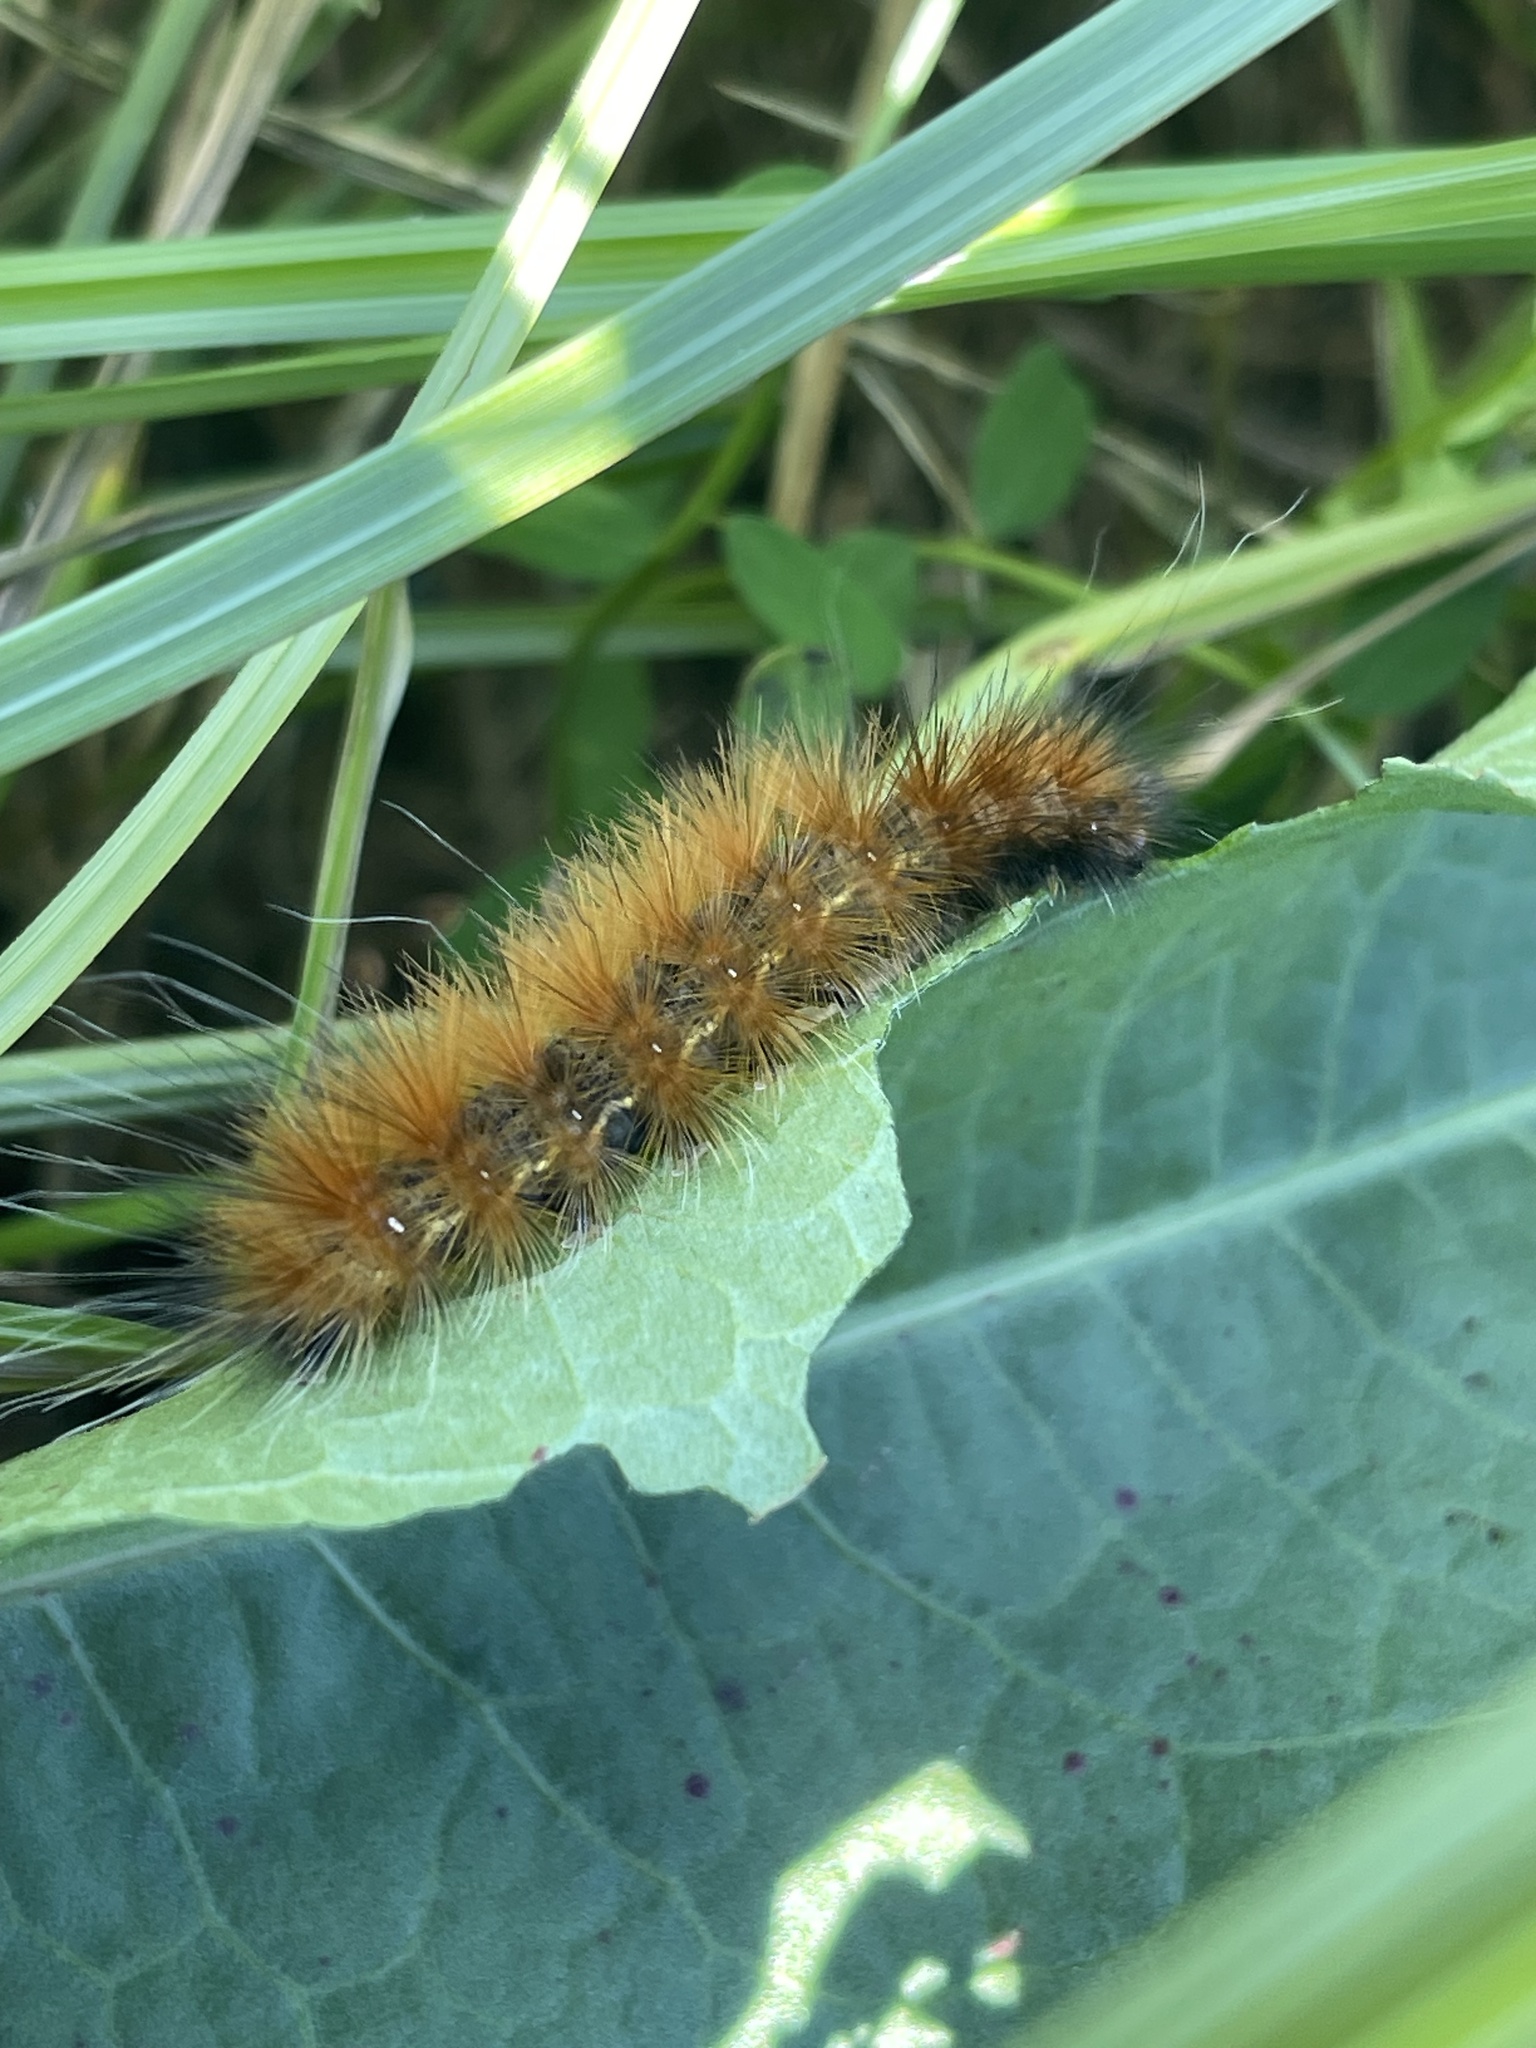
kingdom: Animalia
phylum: Arthropoda
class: Insecta
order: Lepidoptera
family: Erebidae
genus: Spilosoma
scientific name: Spilosoma virginica
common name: Virginia tiger moth
